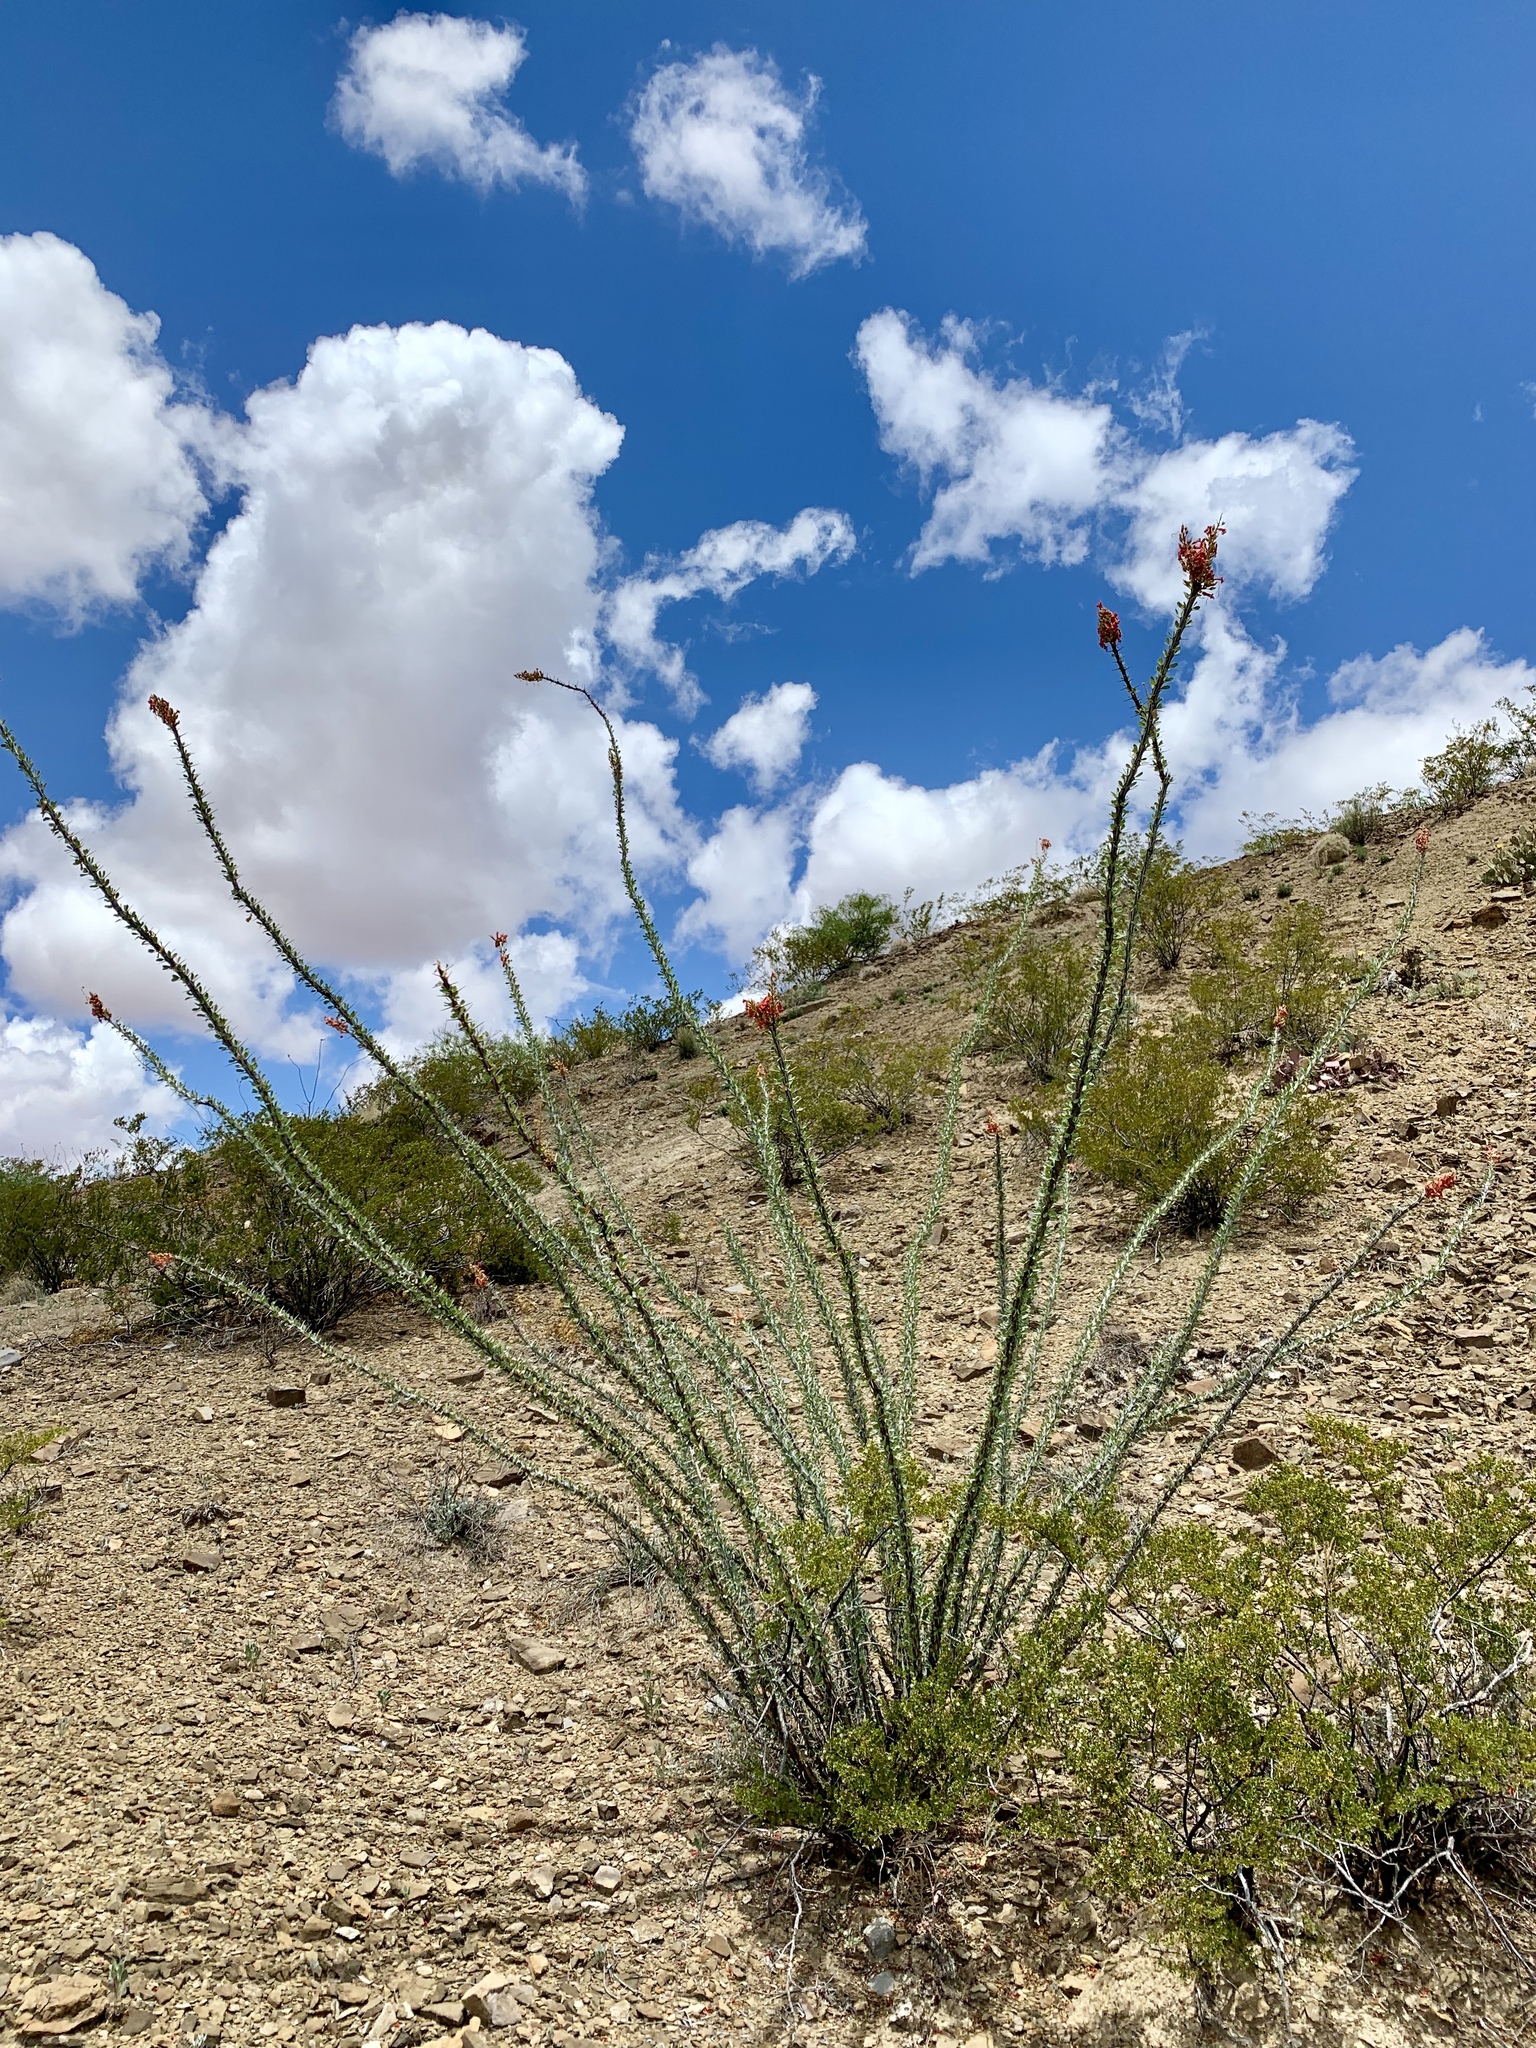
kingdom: Plantae
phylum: Tracheophyta
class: Magnoliopsida
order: Ericales
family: Fouquieriaceae
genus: Fouquieria
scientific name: Fouquieria splendens
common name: Vine-cactus
